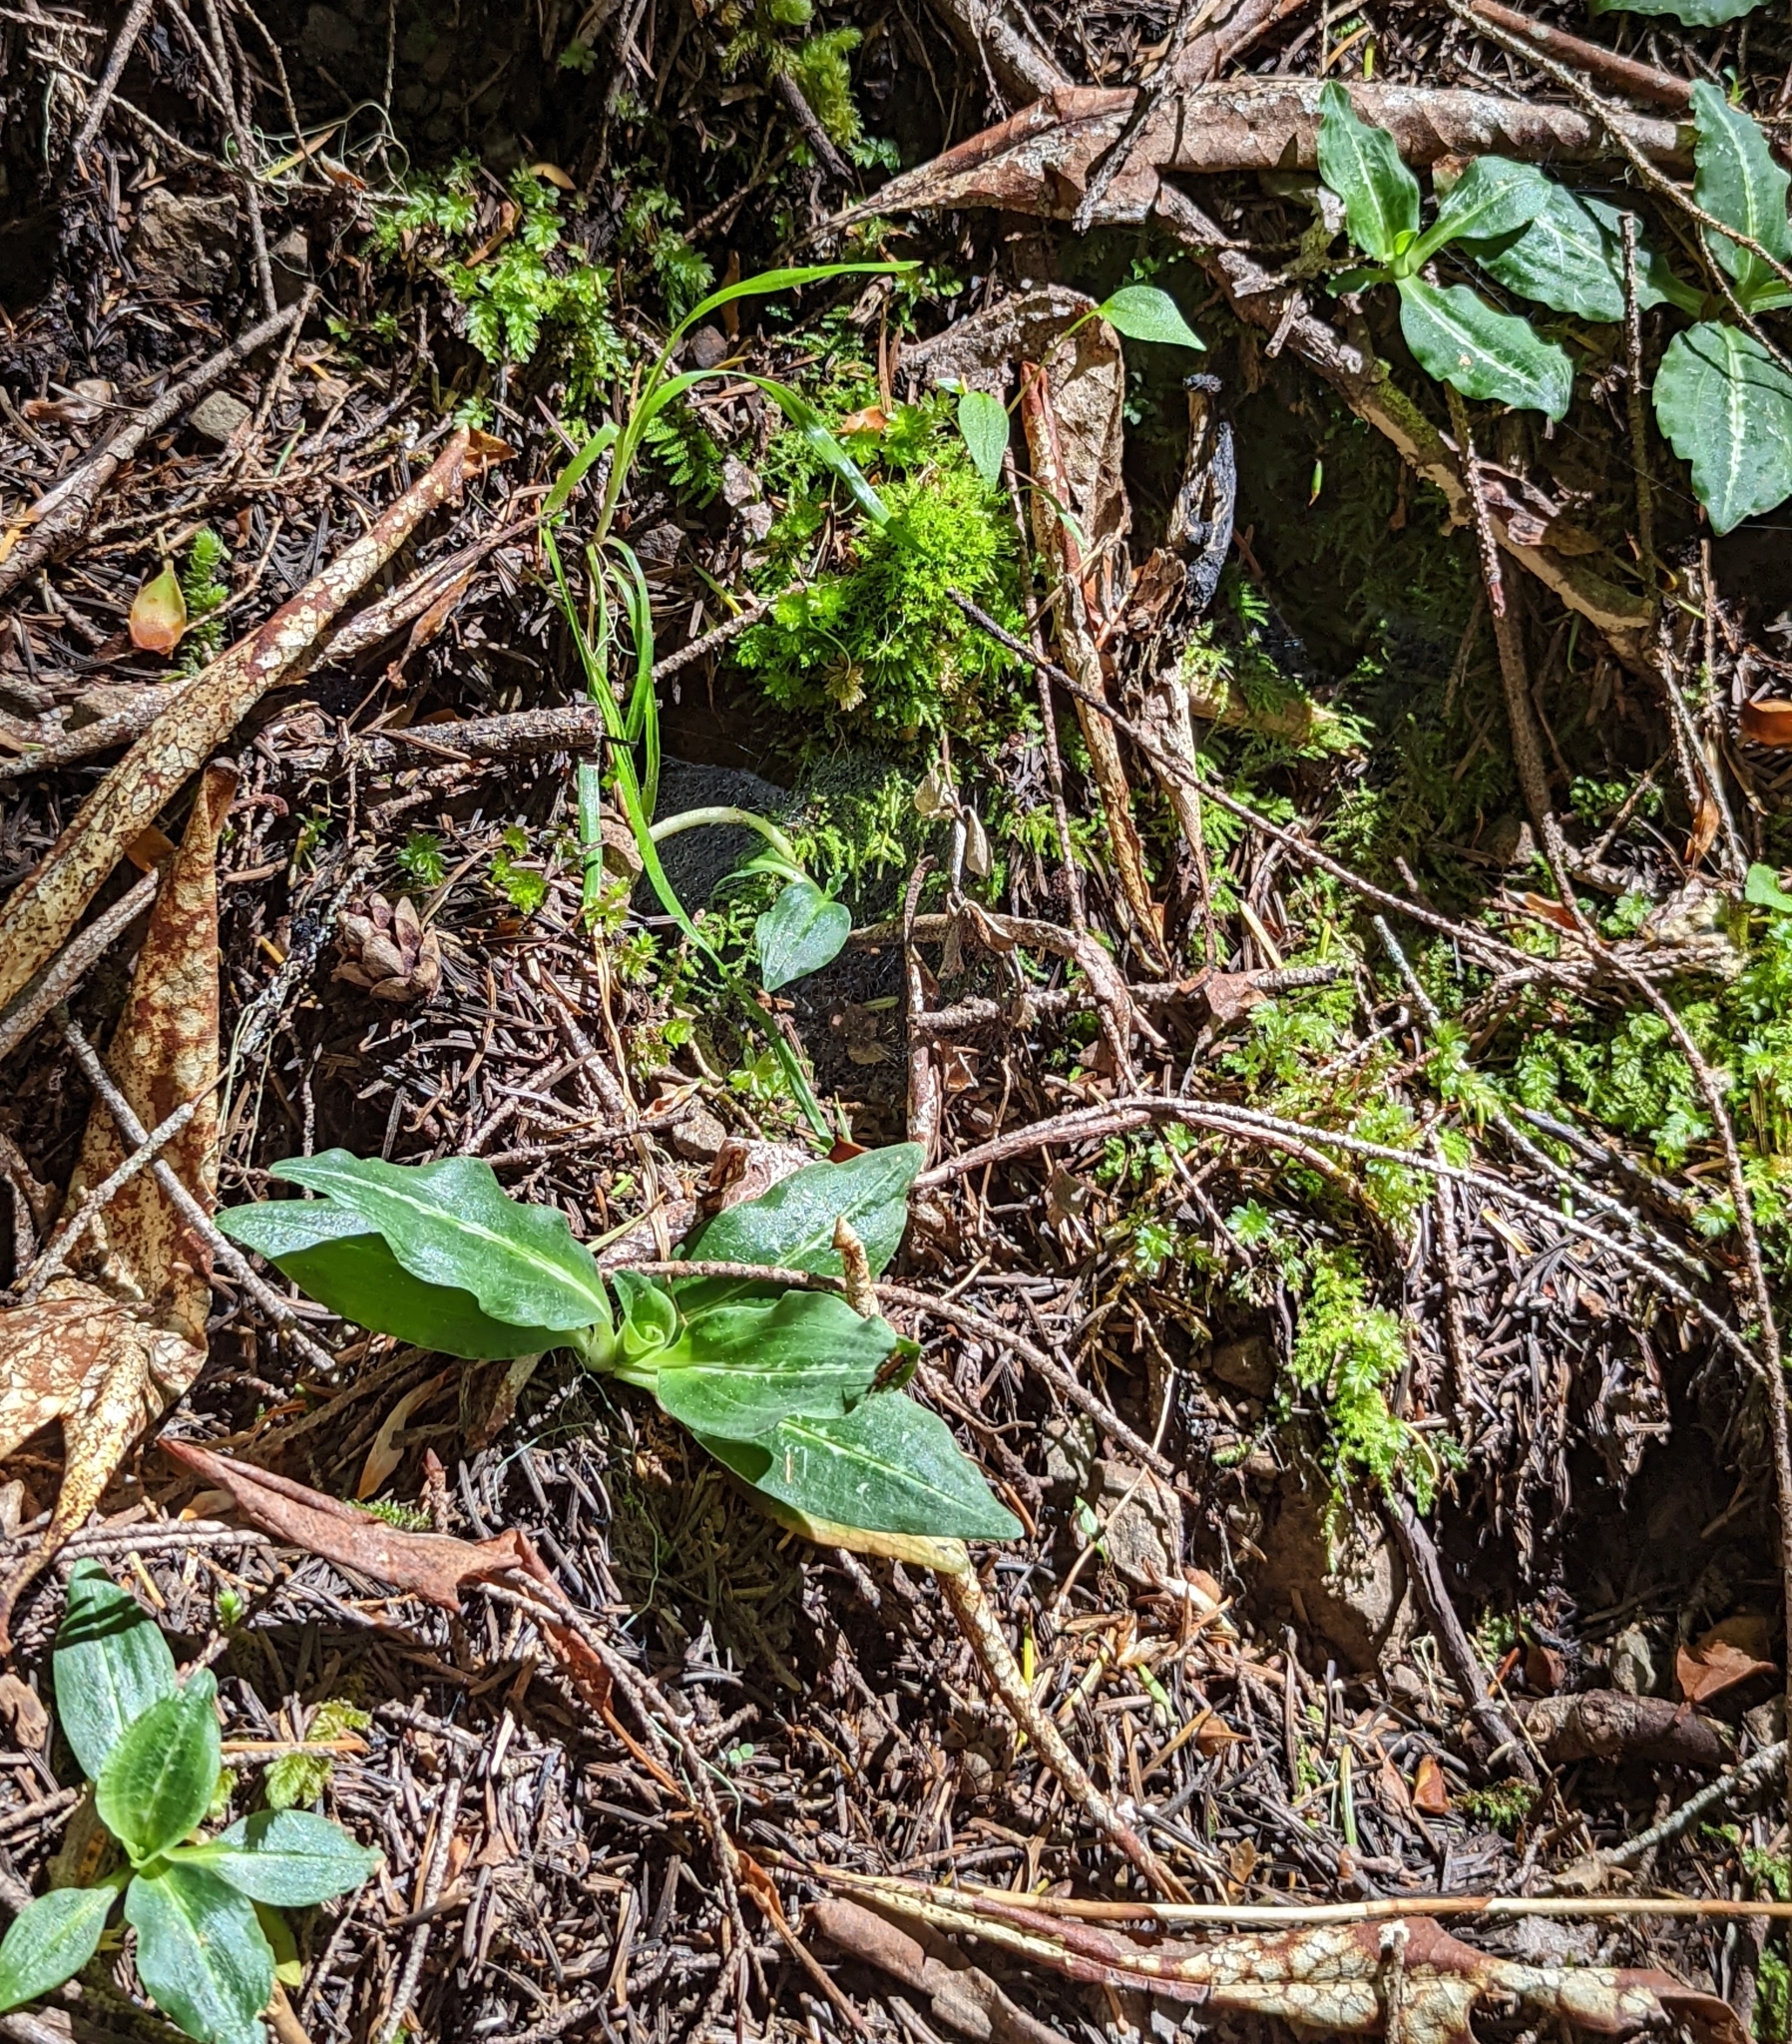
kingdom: Plantae
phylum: Tracheophyta
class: Liliopsida
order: Asparagales
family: Orchidaceae
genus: Goodyera
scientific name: Goodyera oblongifolia
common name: Giant rattlesnake-plantain
